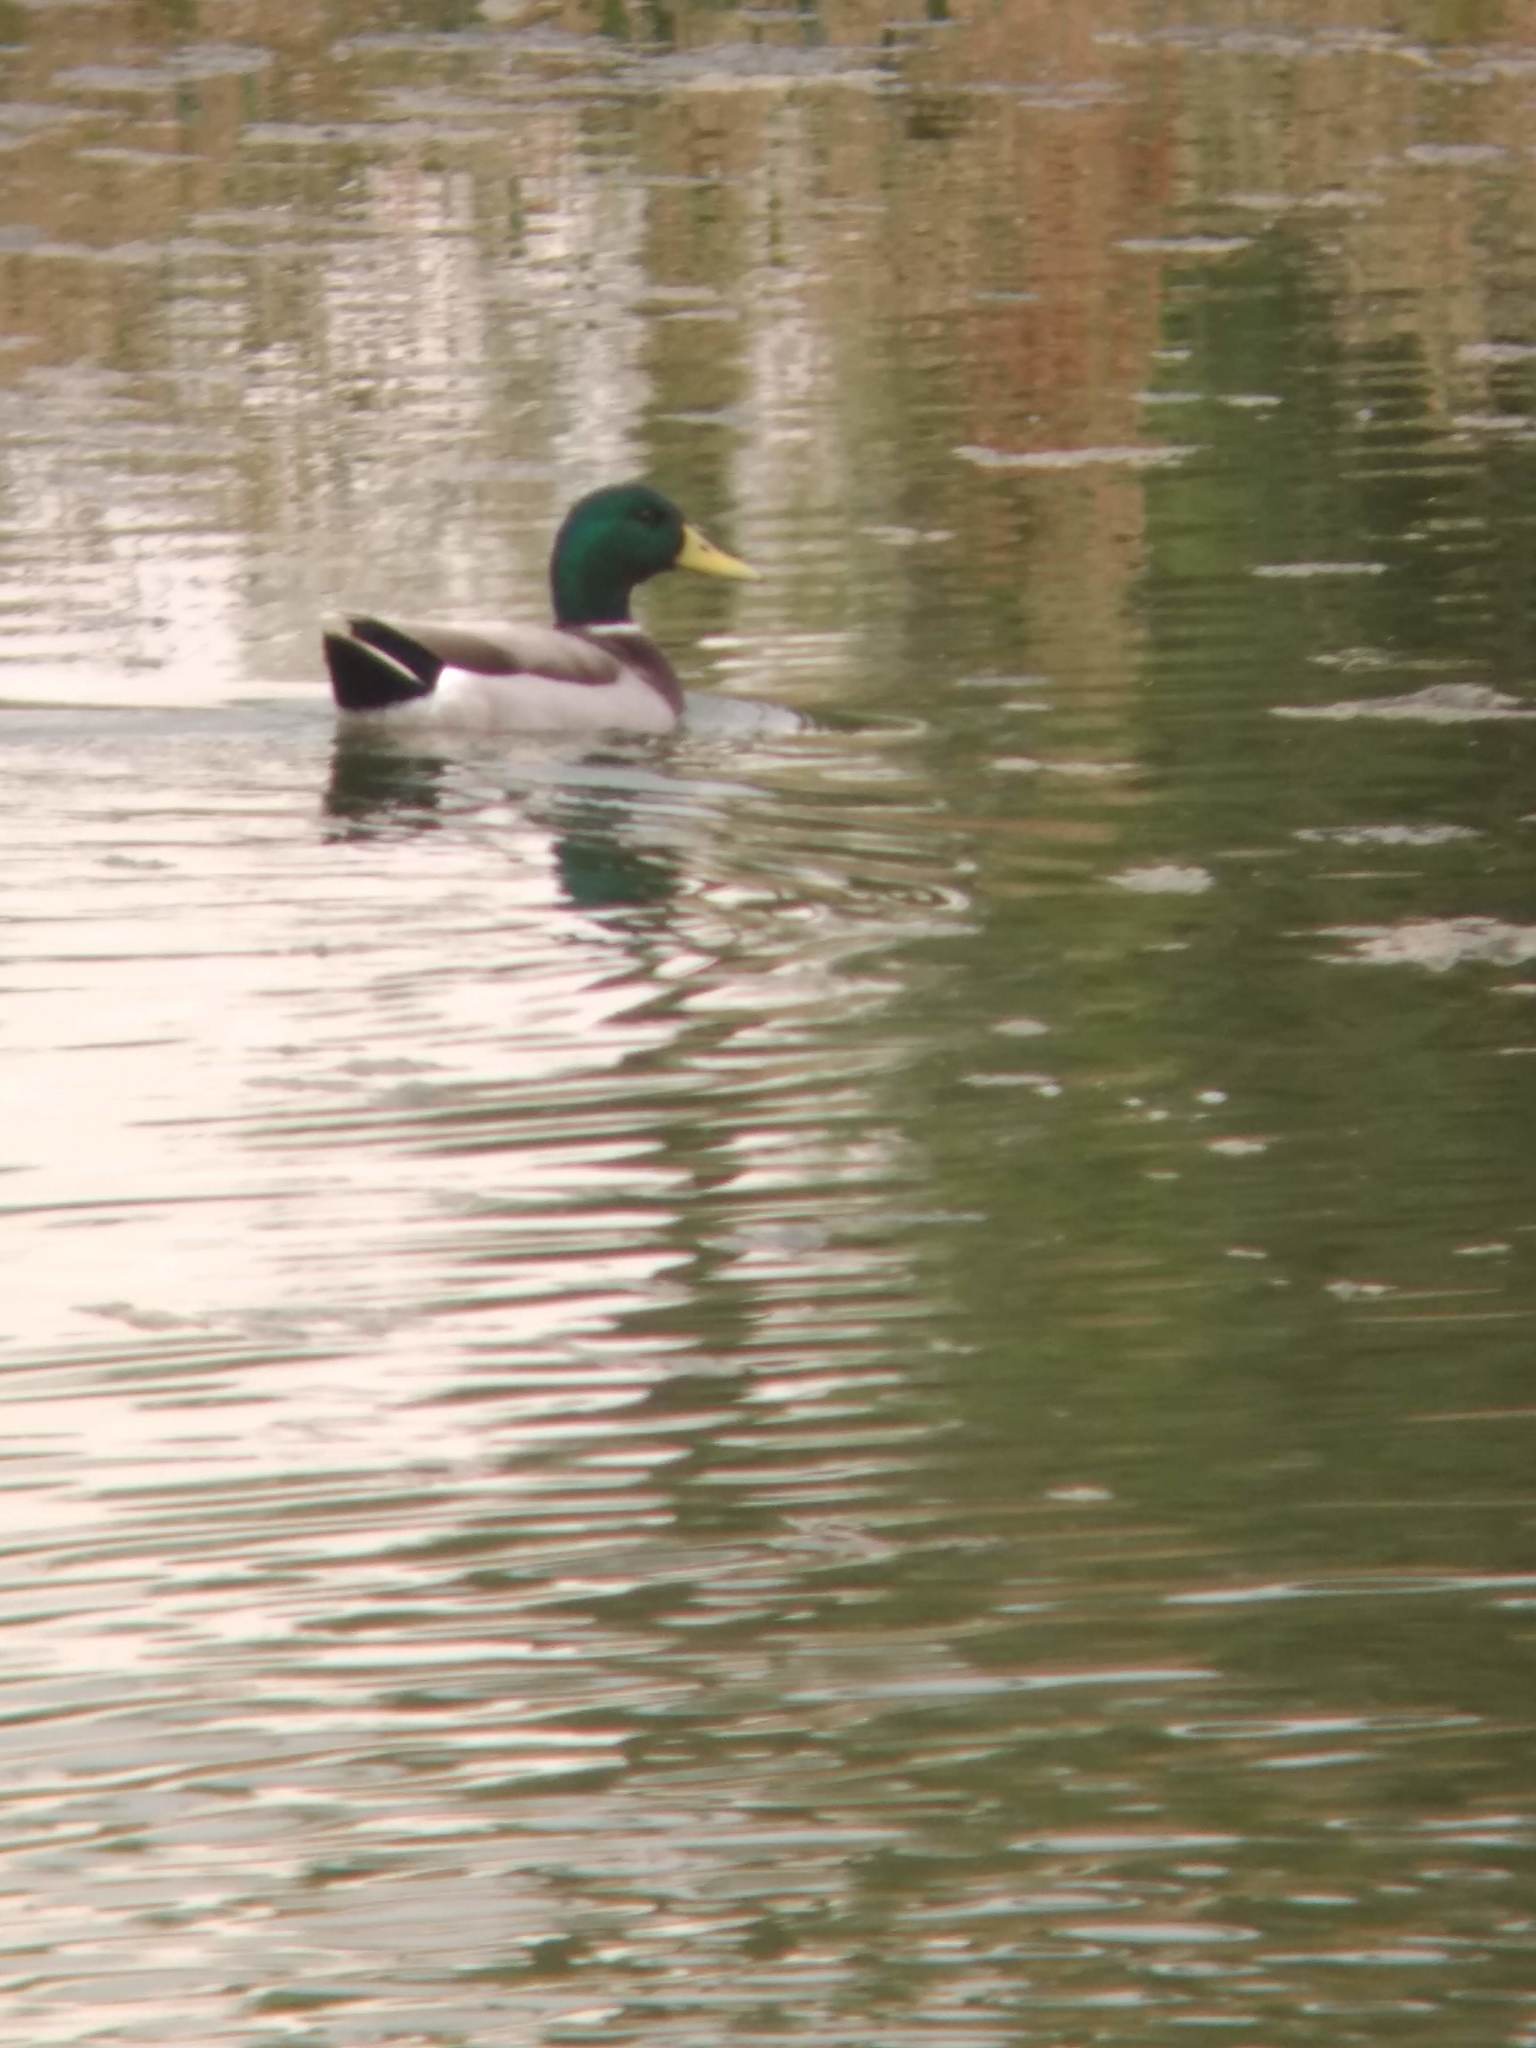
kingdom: Animalia
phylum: Chordata
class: Aves
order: Anseriformes
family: Anatidae
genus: Anas
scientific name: Anas platyrhynchos
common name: Mallard
